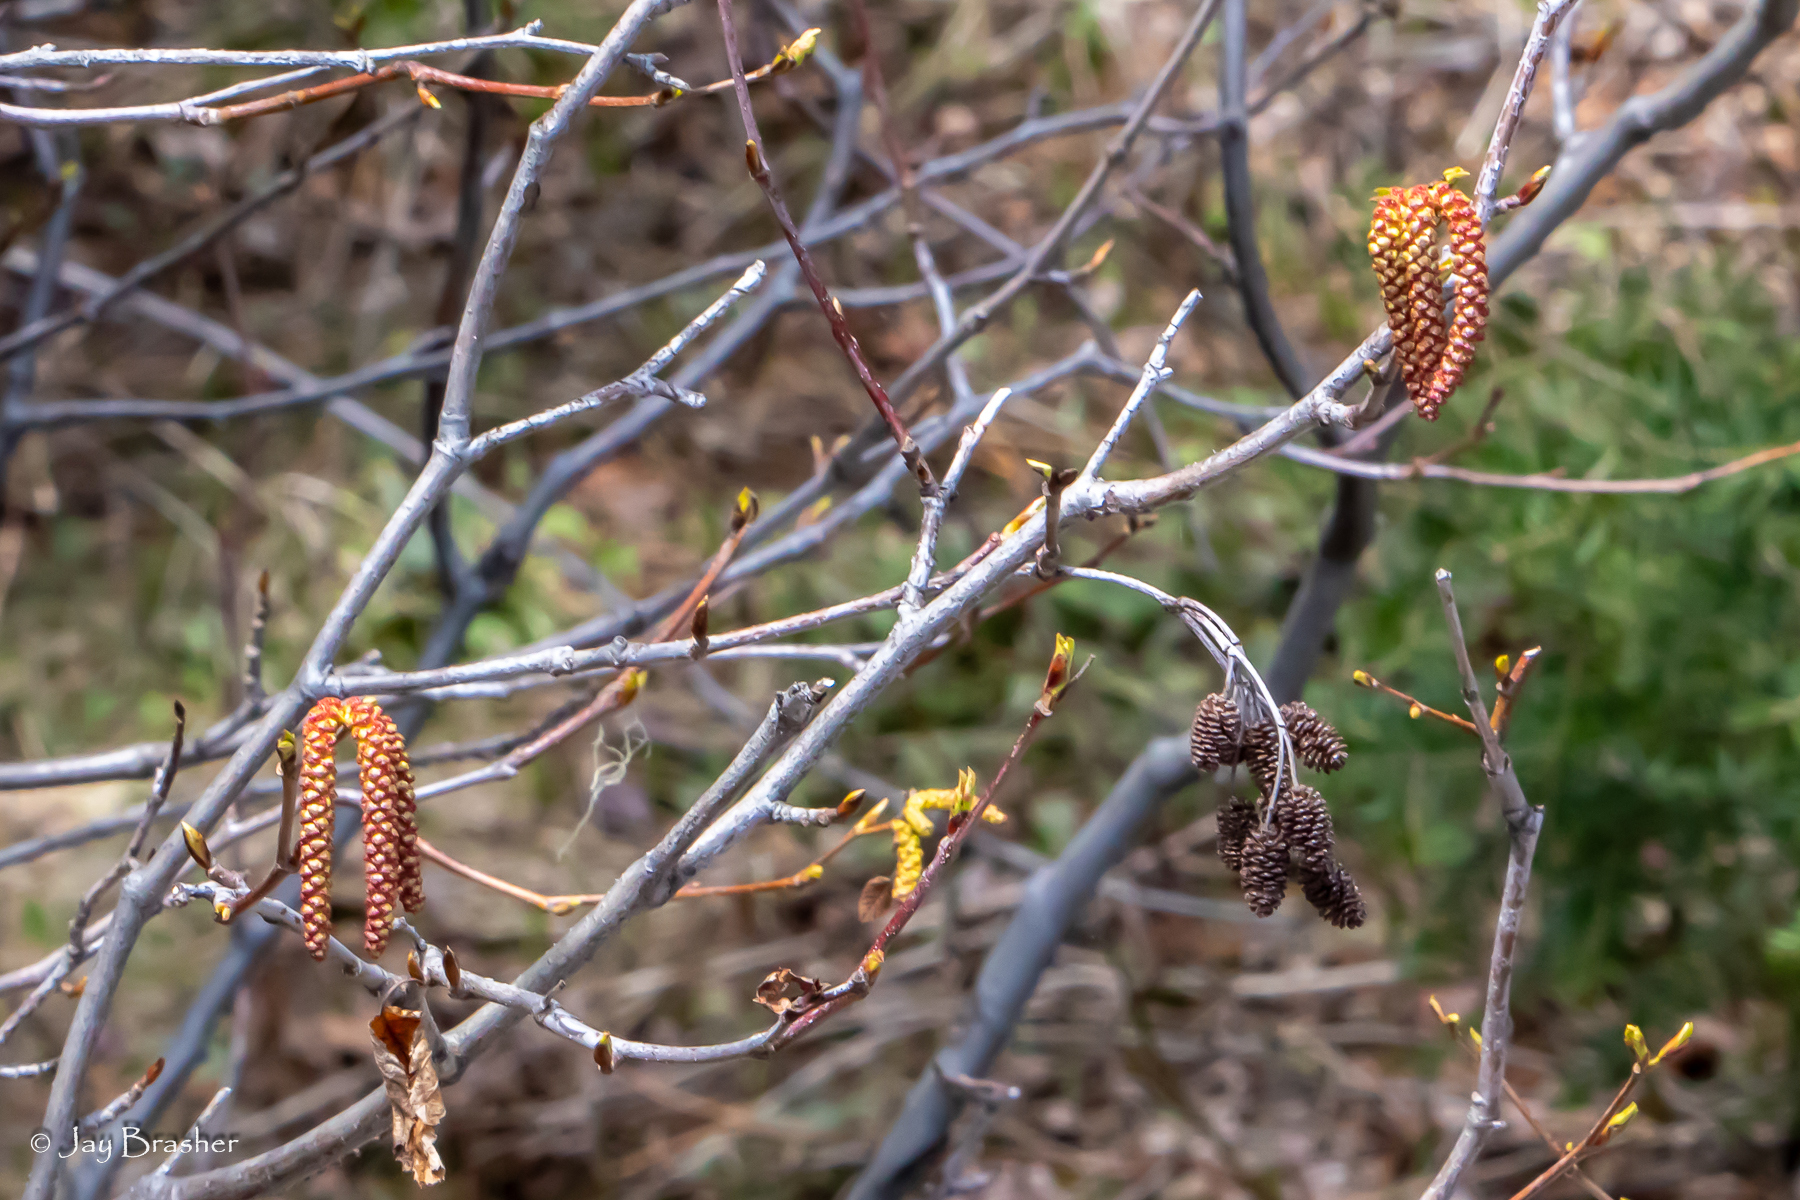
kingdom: Plantae
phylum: Tracheophyta
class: Magnoliopsida
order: Fagales
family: Betulaceae
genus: Alnus
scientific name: Alnus alnobetula
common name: Green alder
